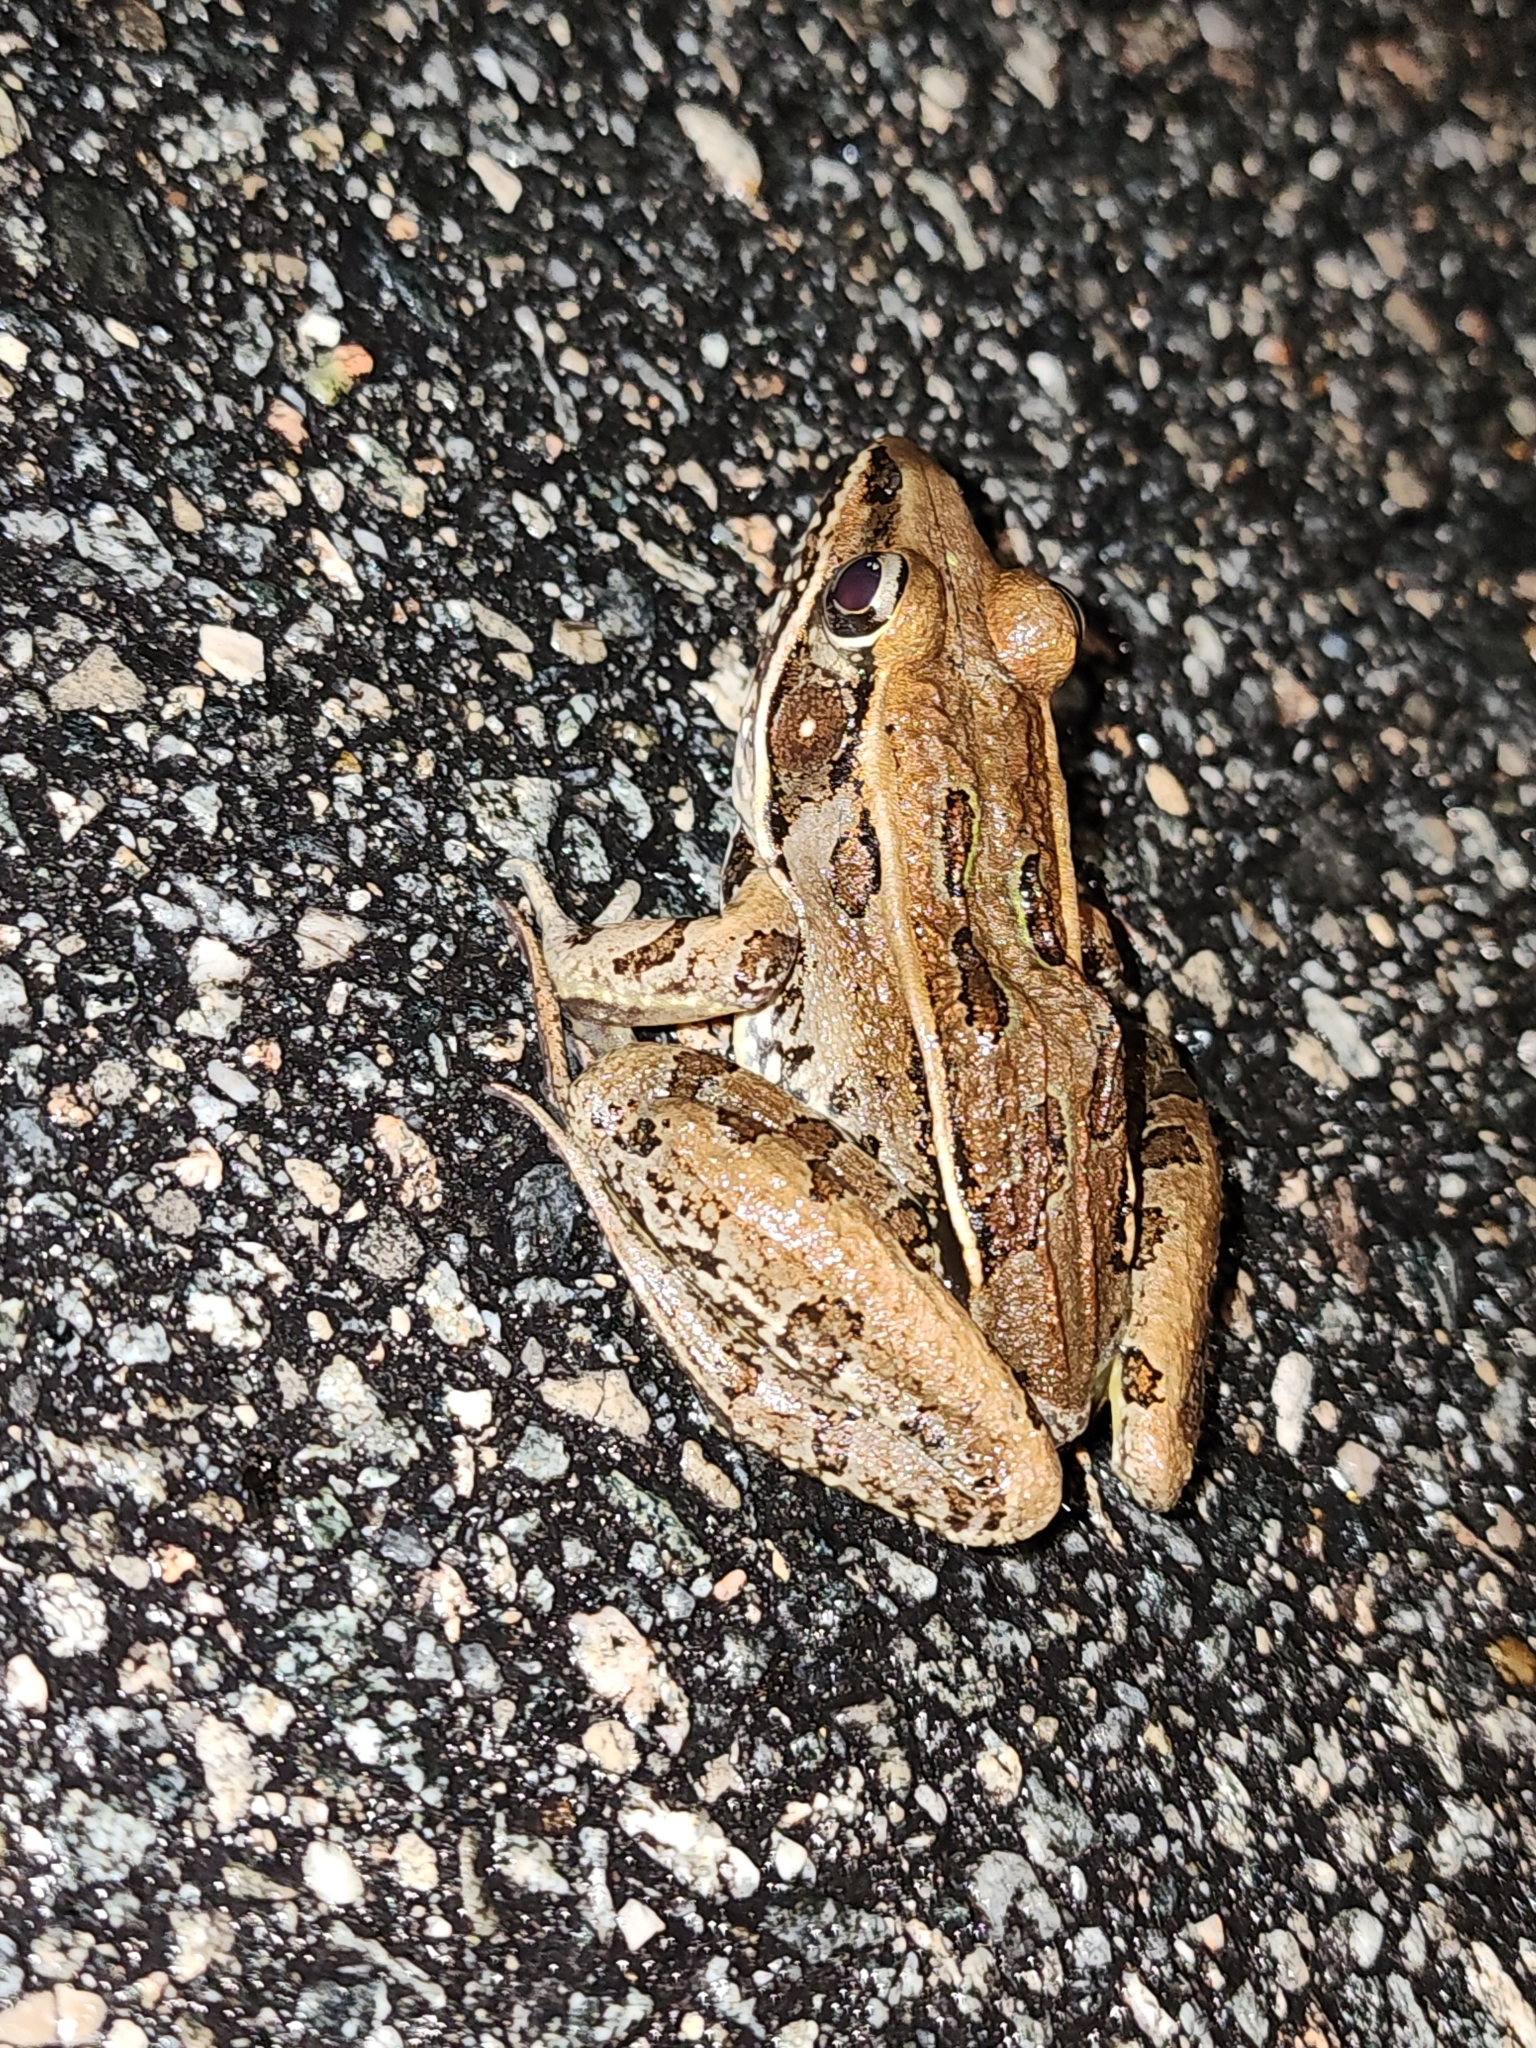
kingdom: Animalia
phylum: Chordata
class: Amphibia
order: Anura
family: Ranidae
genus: Lithobates
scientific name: Lithobates sphenocephalus
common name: Southern leopard frog
